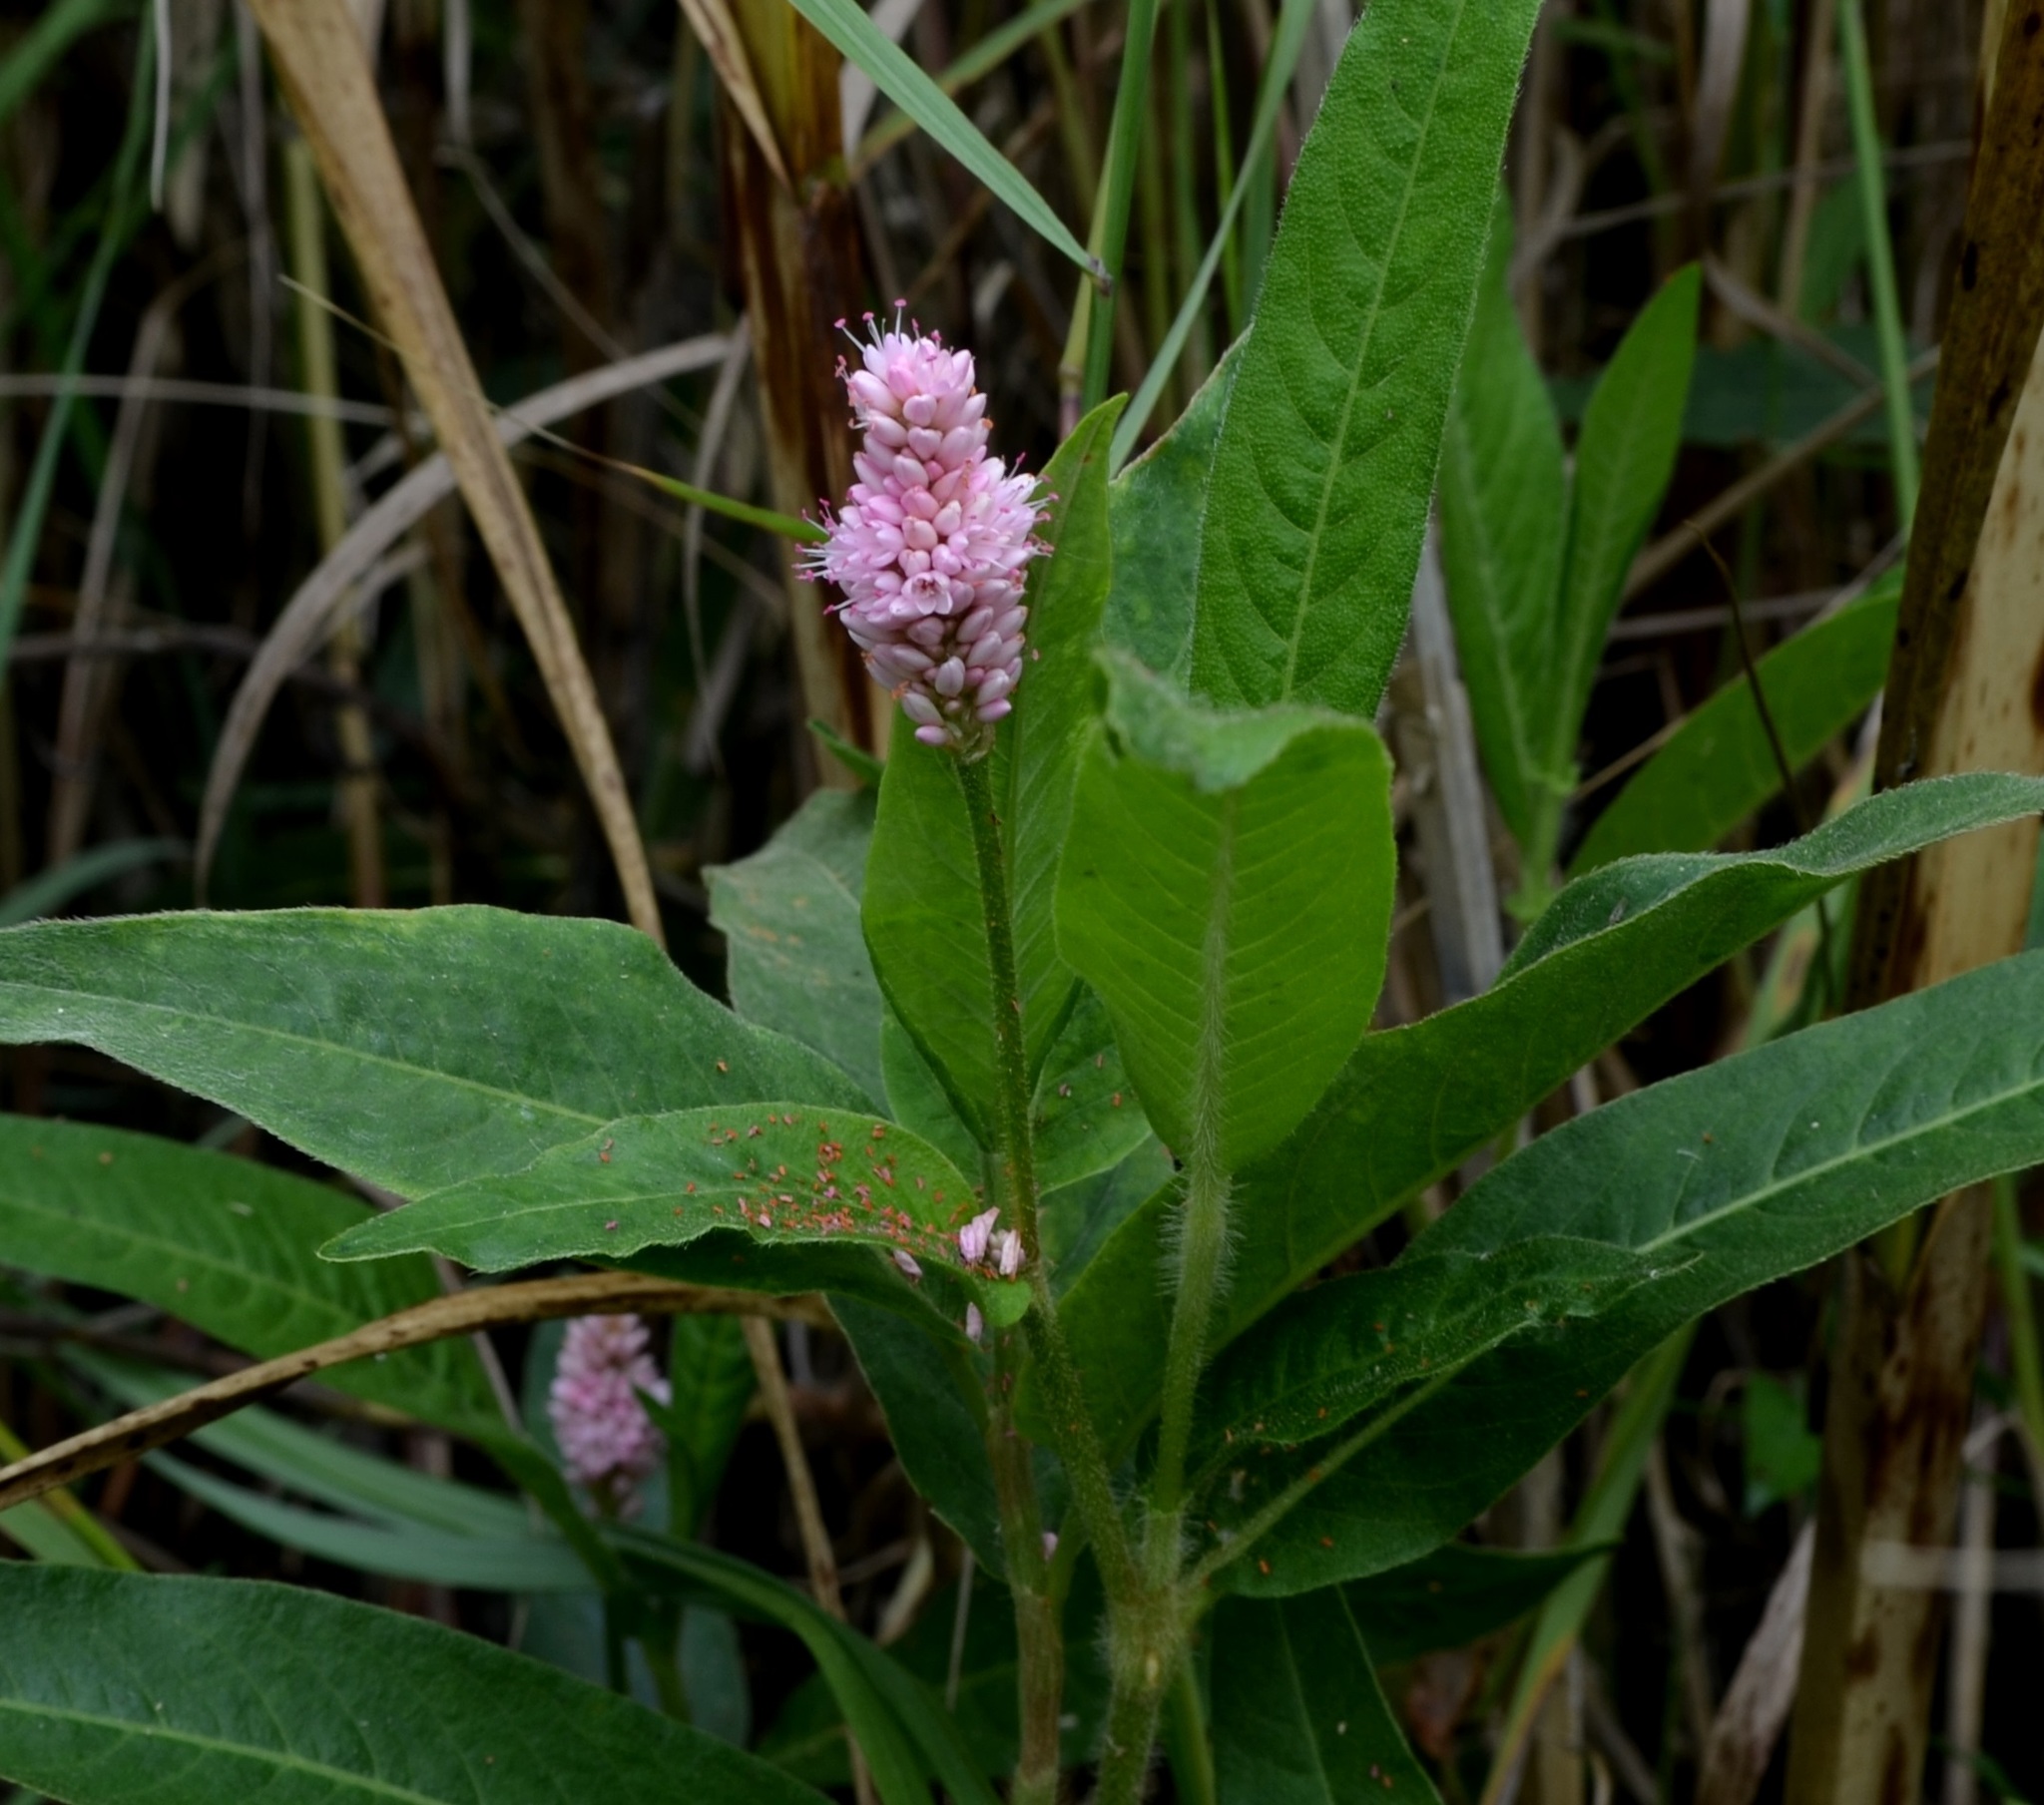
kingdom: Plantae
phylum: Tracheophyta
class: Magnoliopsida
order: Caryophyllales
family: Polygonaceae
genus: Persicaria
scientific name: Persicaria amphibia
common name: Amphibious bistort
